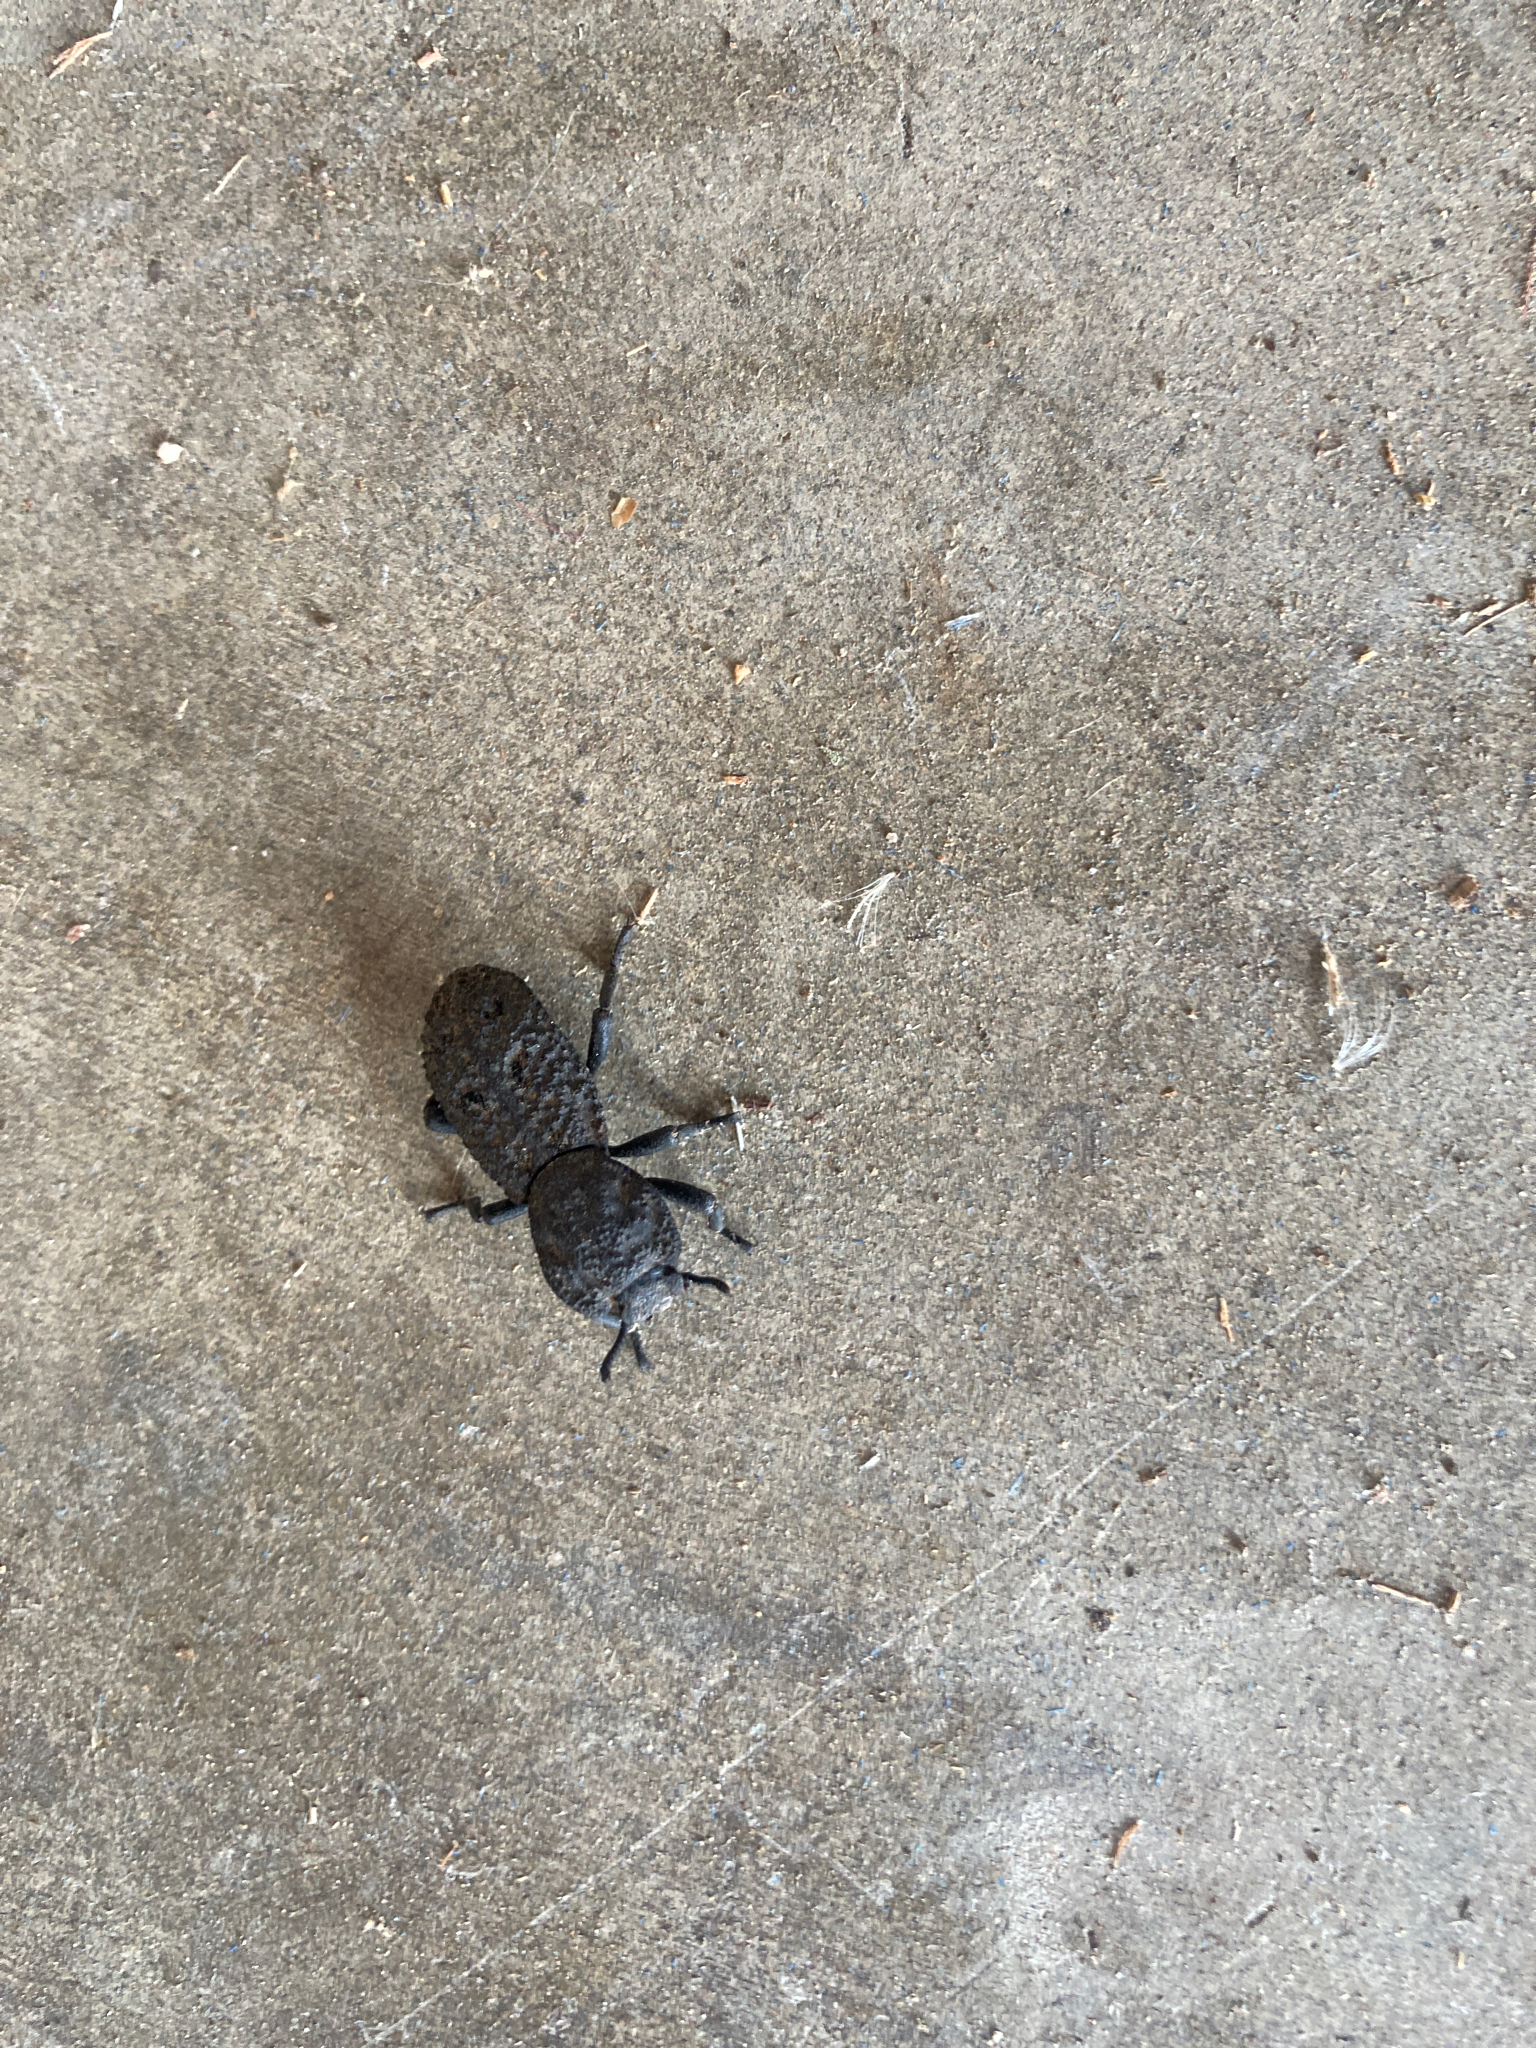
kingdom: Animalia
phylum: Arthropoda
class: Insecta
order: Coleoptera
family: Zopheridae
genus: Phloeodes
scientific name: Phloeodes diabolicus
